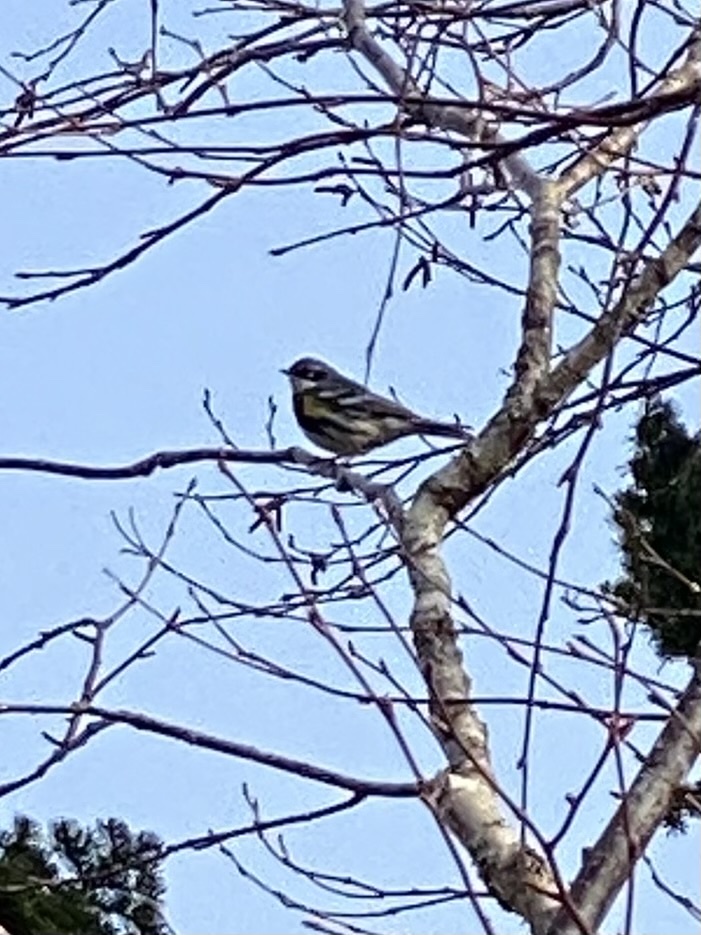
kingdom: Animalia
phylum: Chordata
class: Aves
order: Passeriformes
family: Parulidae
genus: Setophaga
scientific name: Setophaga coronata
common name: Myrtle warbler
